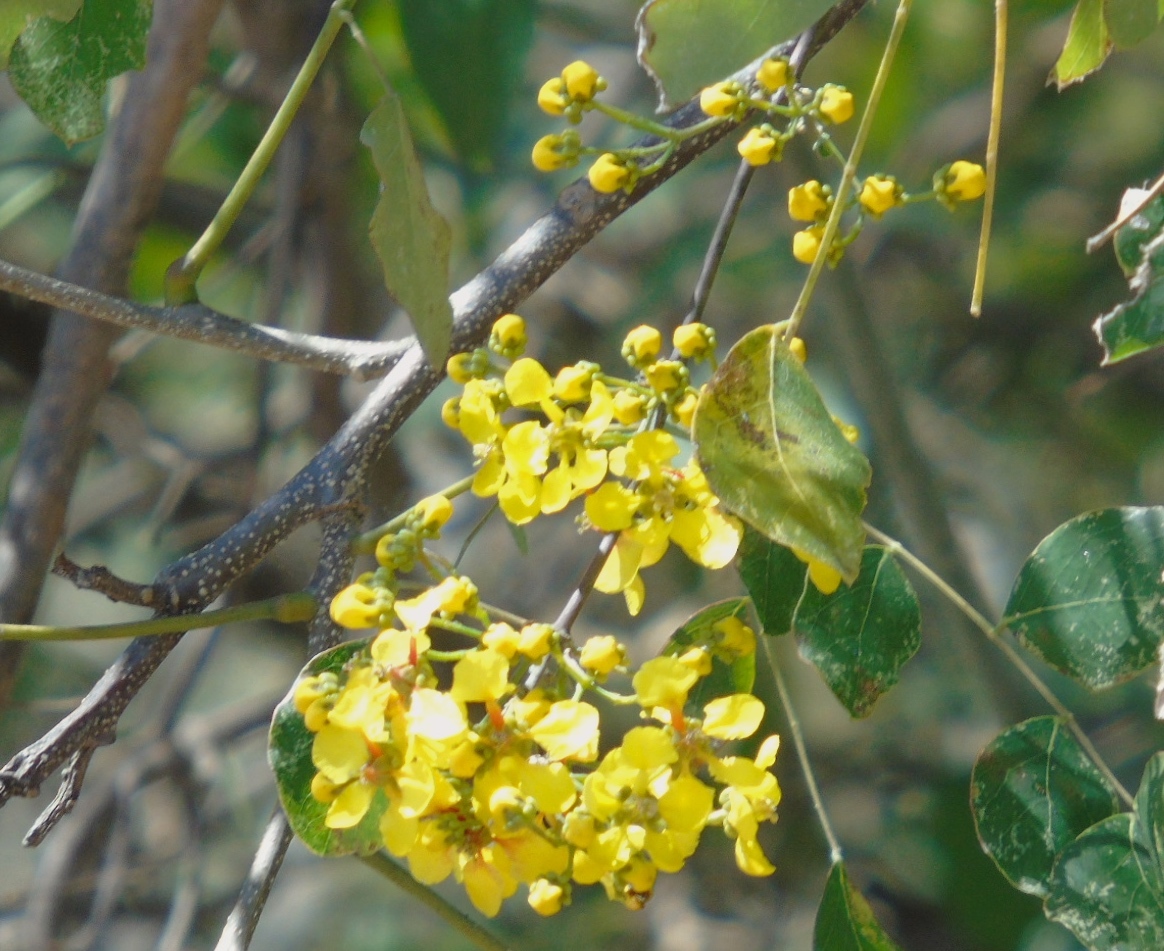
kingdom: Plantae
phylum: Tracheophyta
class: Magnoliopsida
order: Malpighiales
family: Malpighiaceae
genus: Tetrapterys
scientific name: Tetrapterys mexicana
